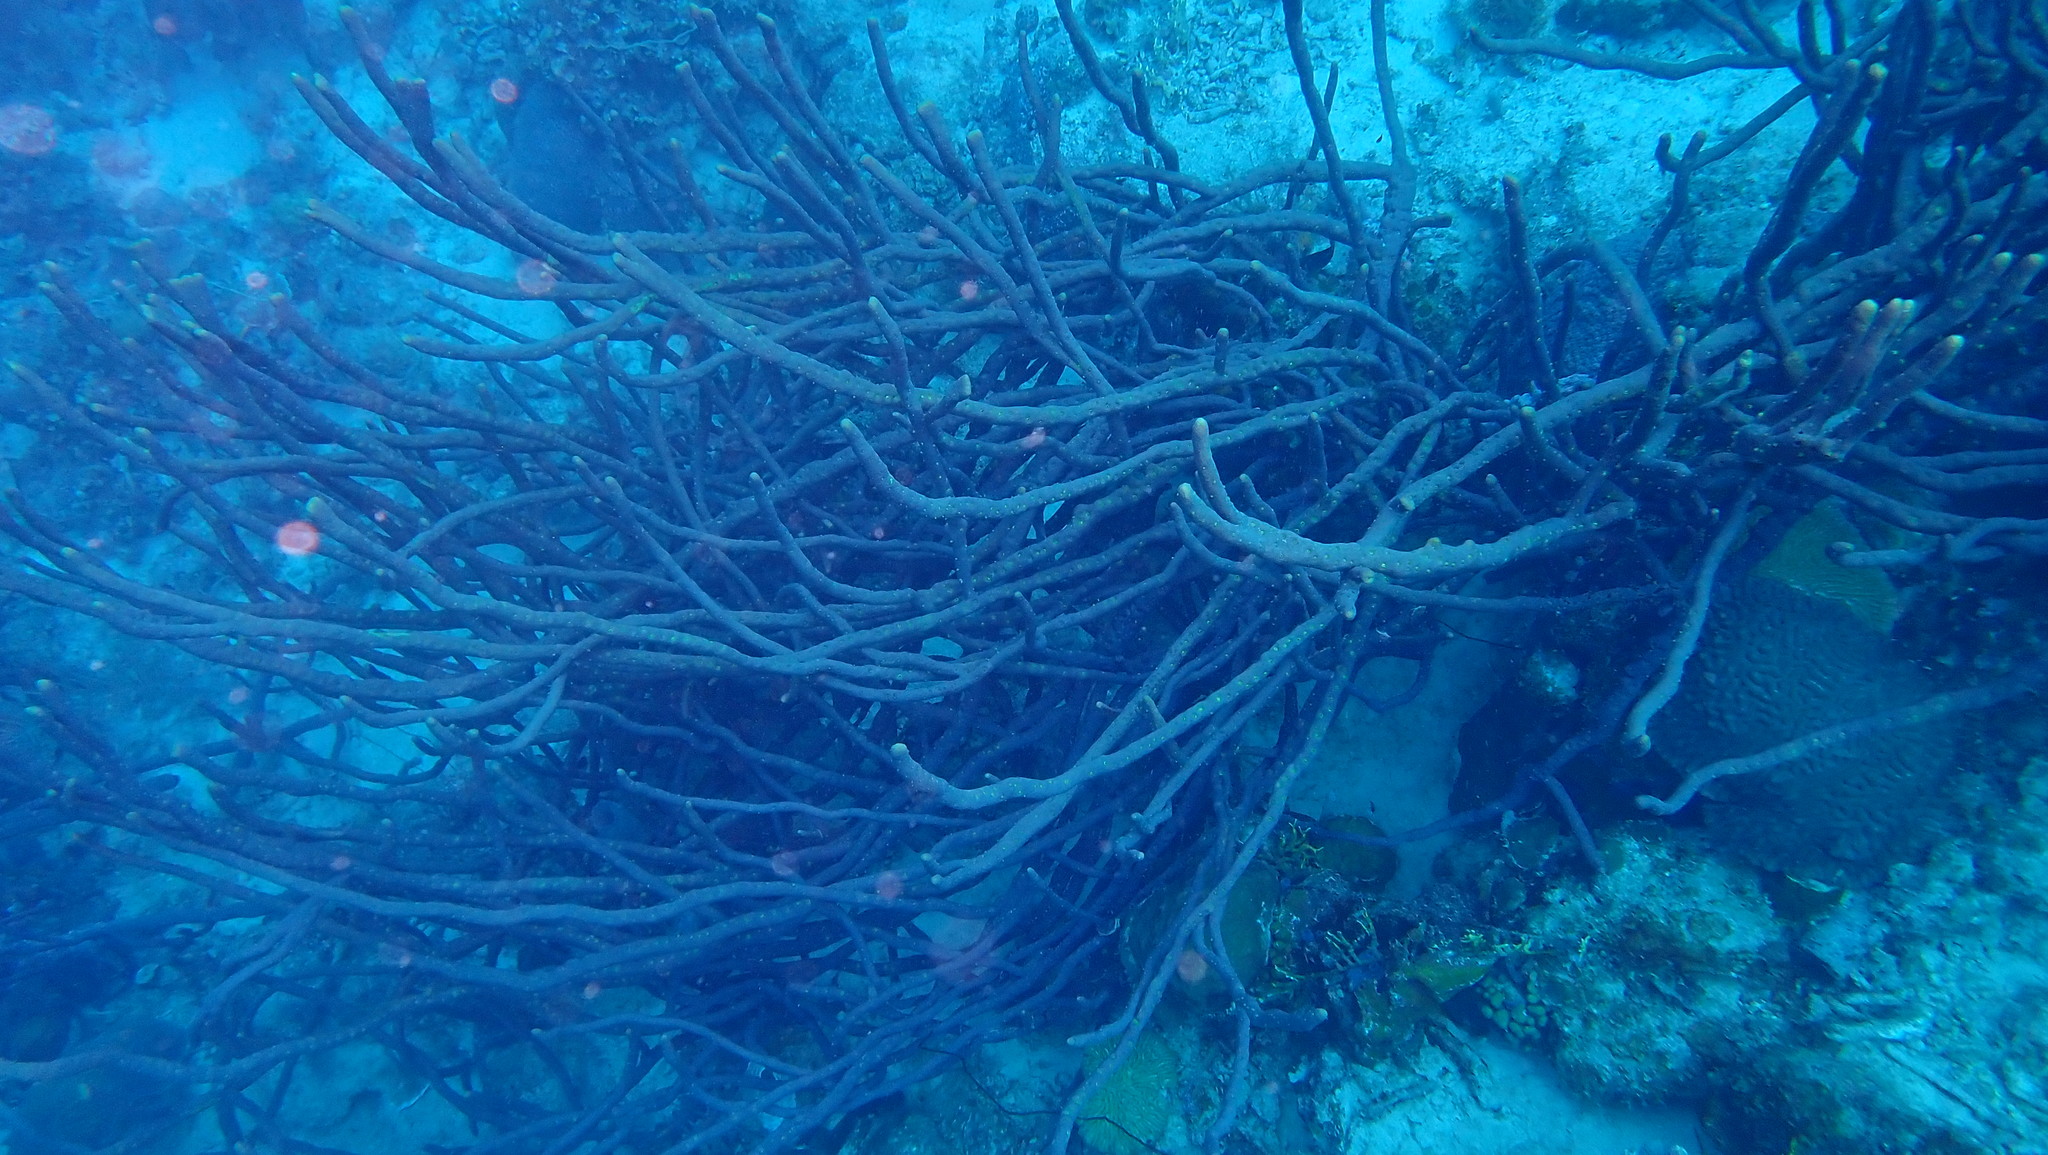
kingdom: Animalia
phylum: Porifera
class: Demospongiae
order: Verongiida
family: Aplysinidae
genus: Aplysina
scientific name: Aplysina cauliformis
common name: Branching candle sponge
